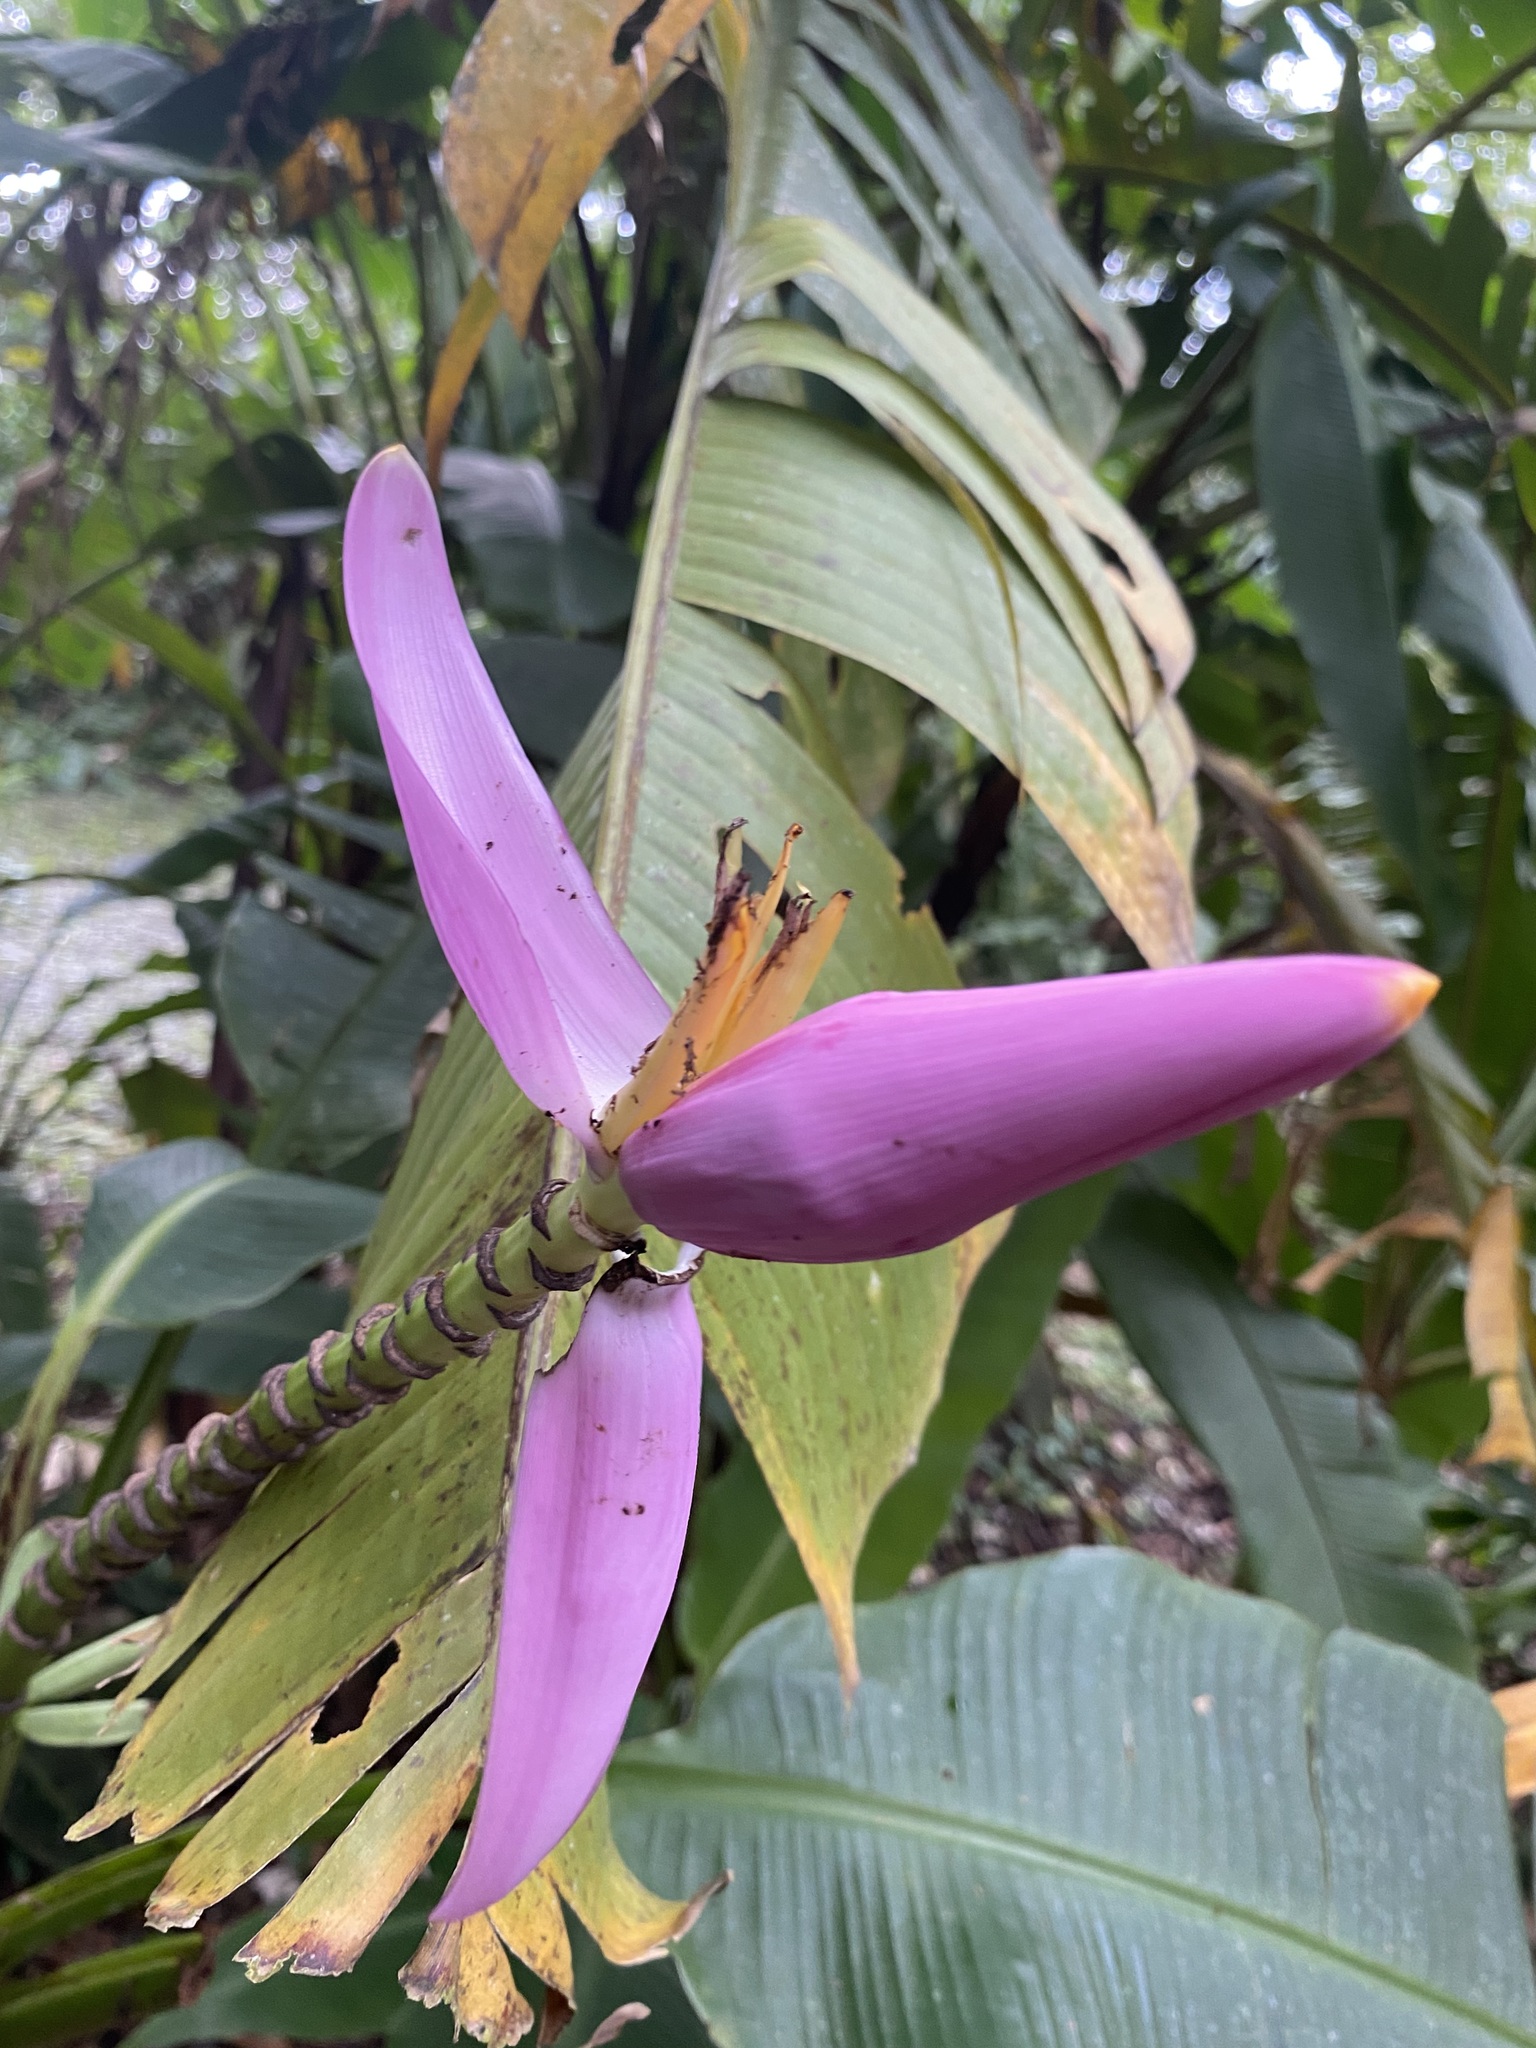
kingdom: Plantae
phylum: Tracheophyta
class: Liliopsida
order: Zingiberales
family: Musaceae
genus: Musa
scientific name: Musa ornata
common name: Flowering banana
